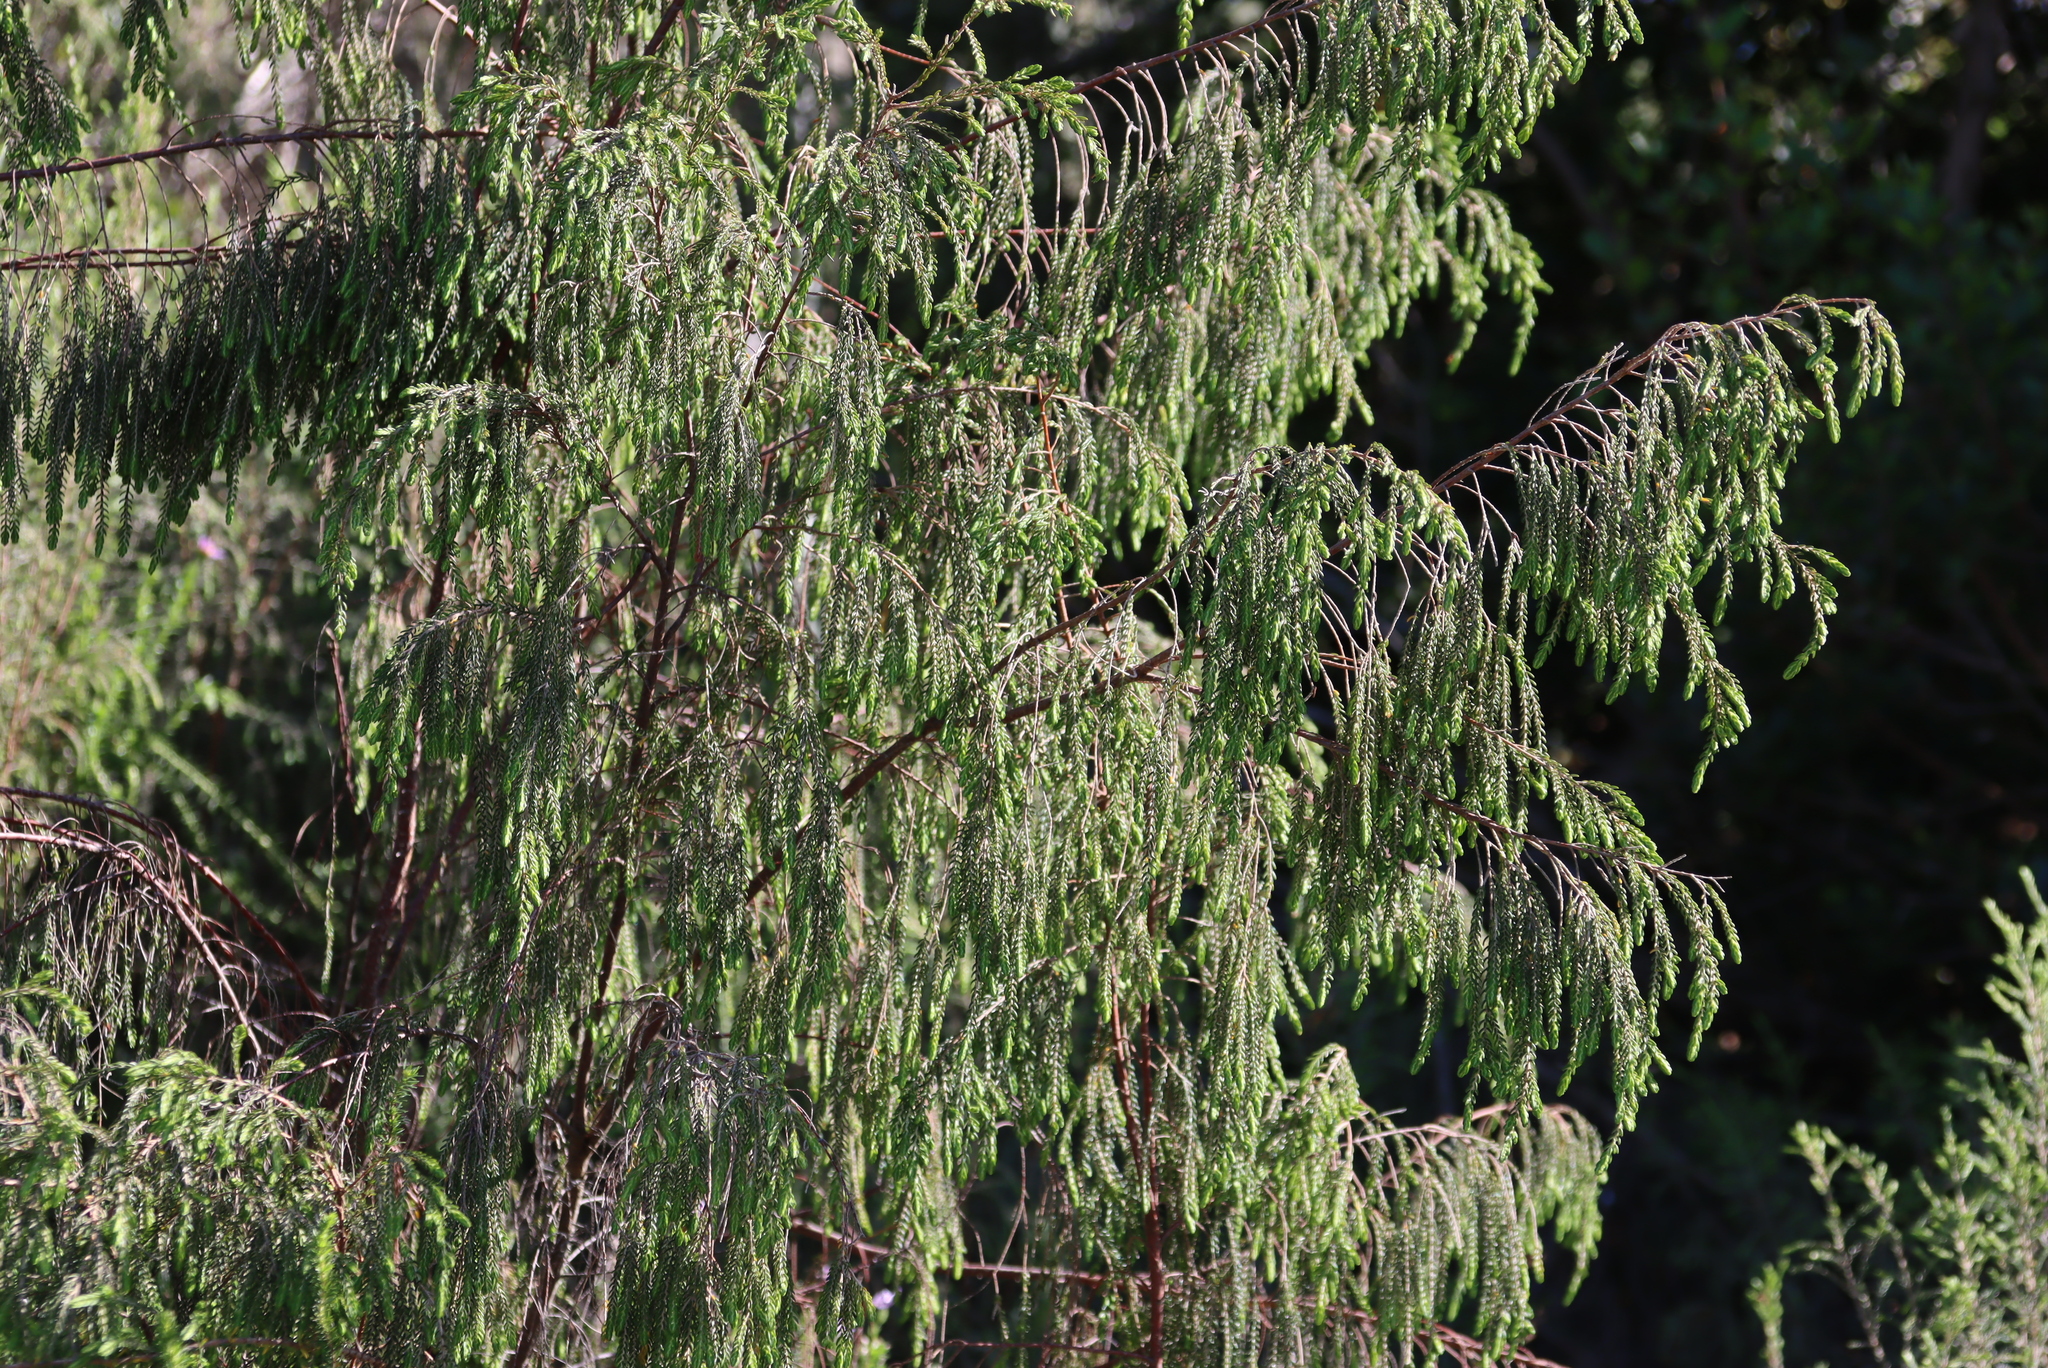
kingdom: Plantae
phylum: Tracheophyta
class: Magnoliopsida
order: Malvales
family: Thymelaeaceae
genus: Passerina
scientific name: Passerina falcifolia
